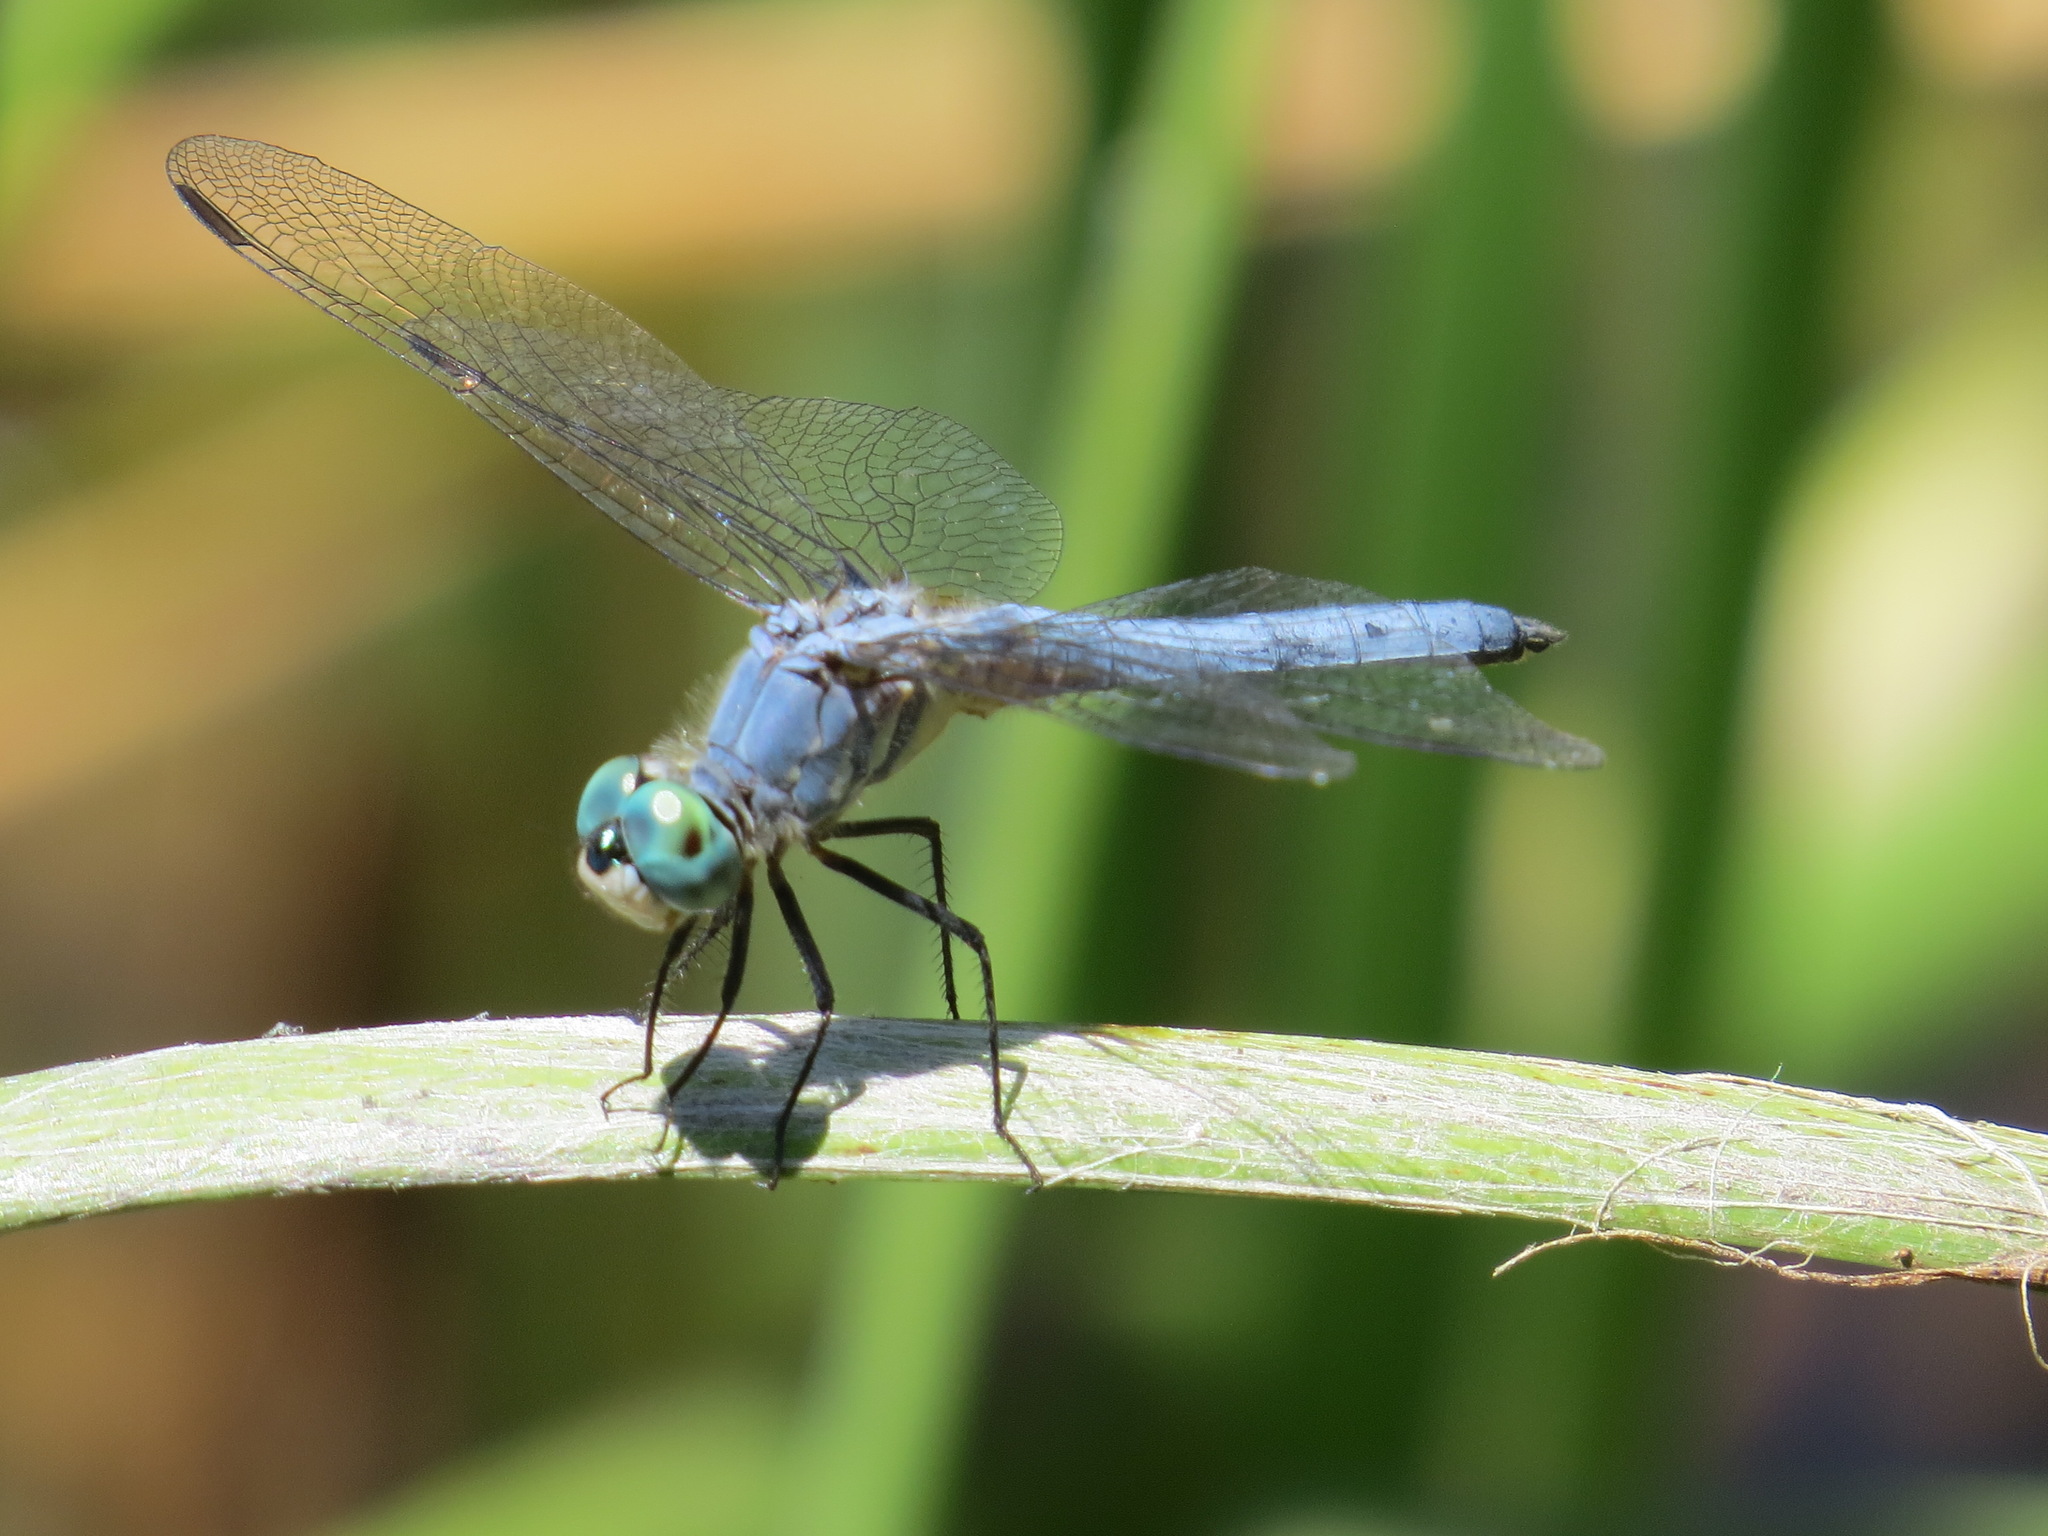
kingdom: Animalia
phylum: Arthropoda
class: Insecta
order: Odonata
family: Libellulidae
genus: Pachydiplax
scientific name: Pachydiplax longipennis
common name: Blue dasher
